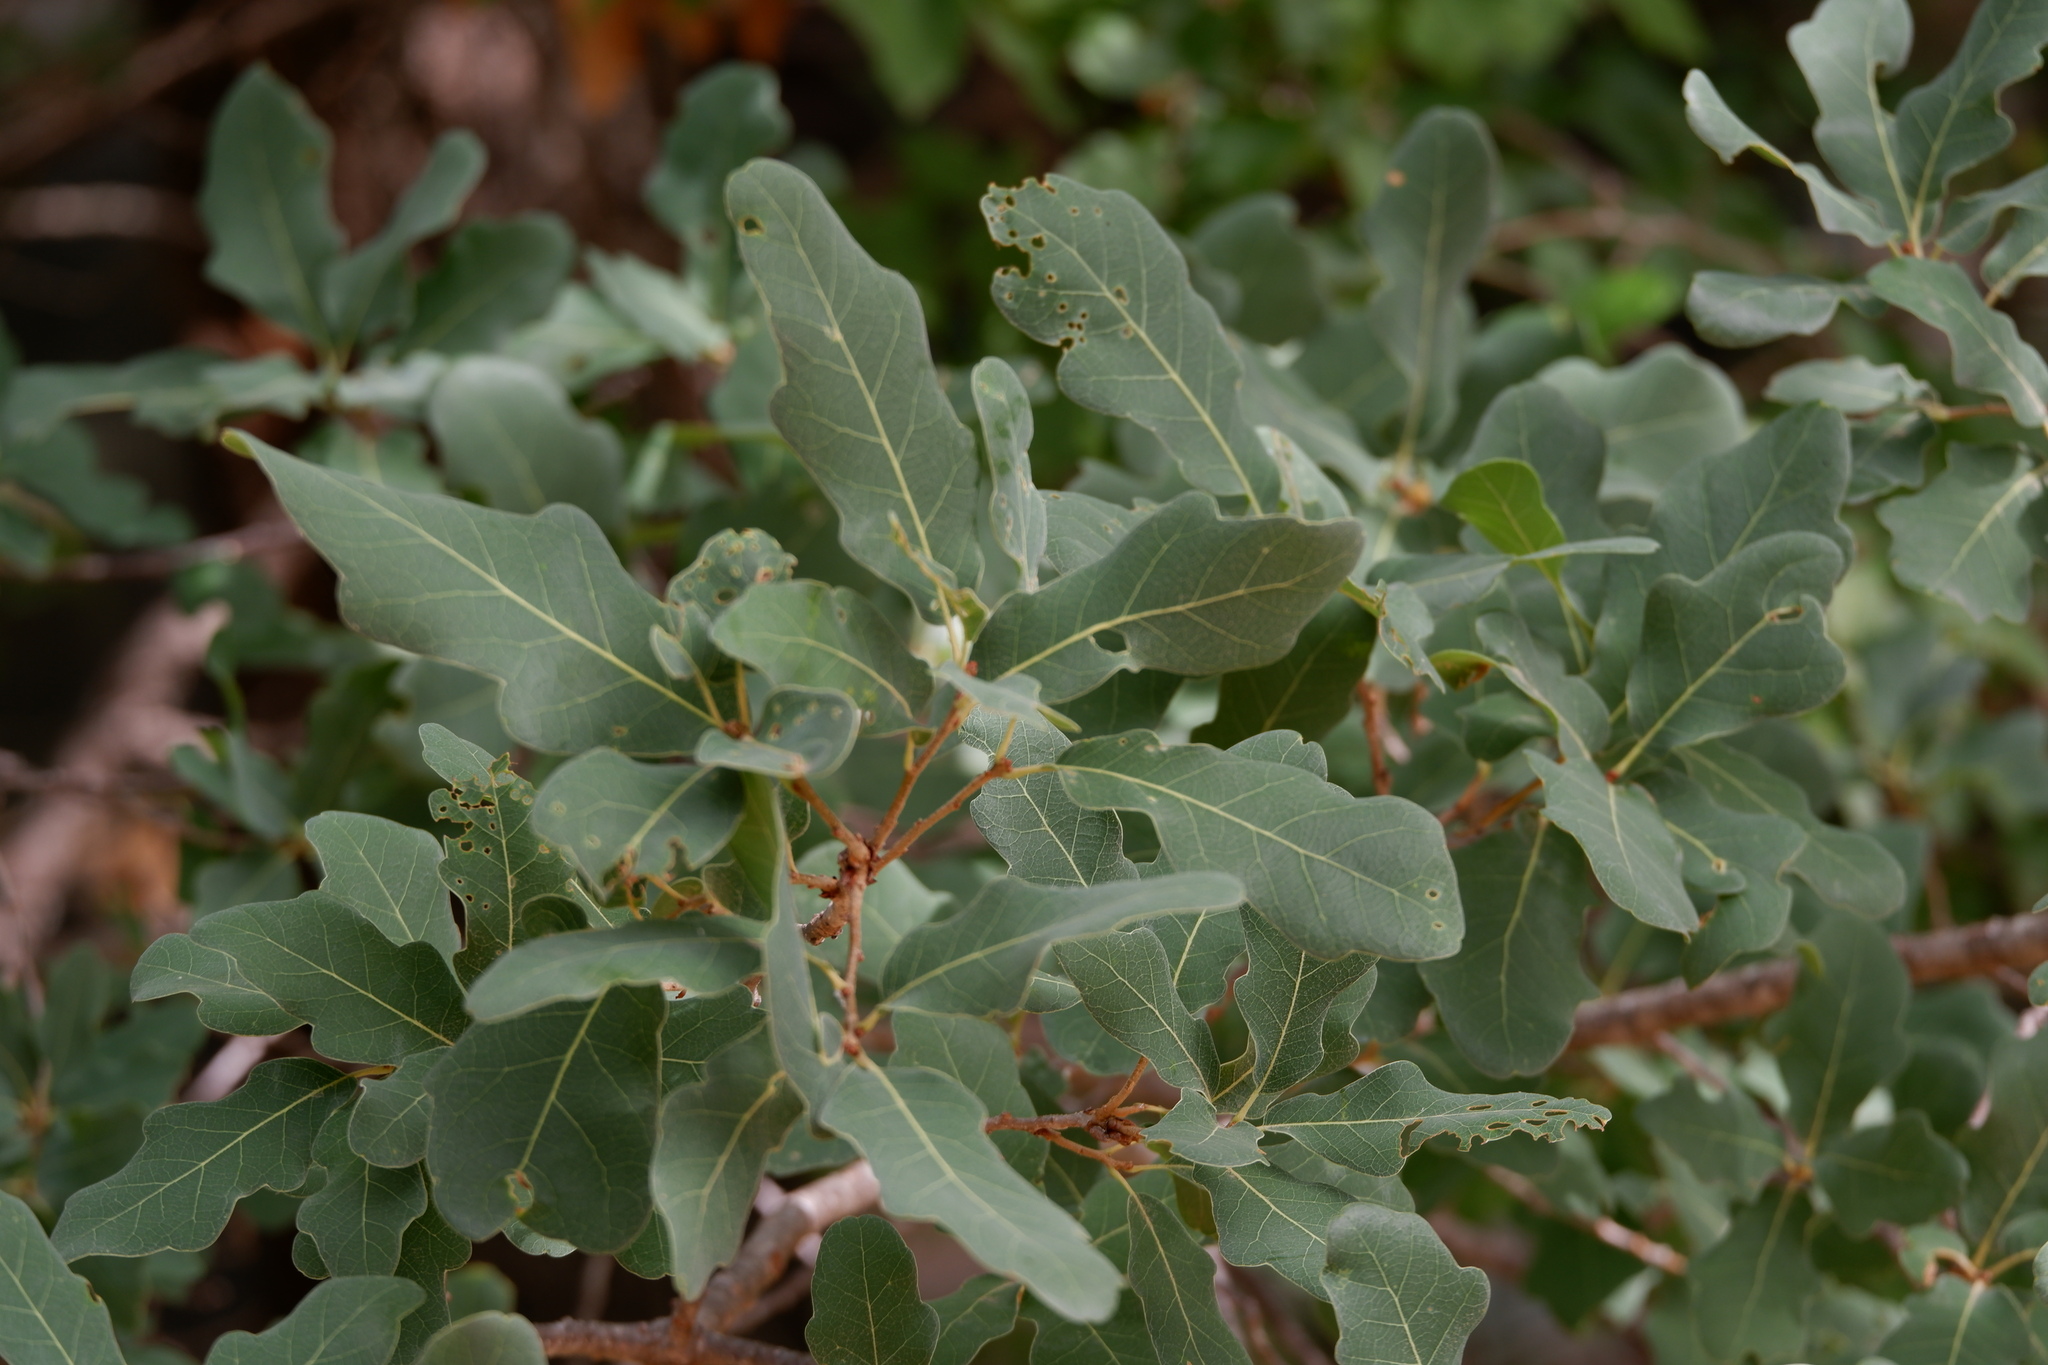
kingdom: Plantae
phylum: Tracheophyta
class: Magnoliopsida
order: Fagales
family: Fagaceae
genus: Quercus
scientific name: Quercus laceyi
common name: Lacey oak
